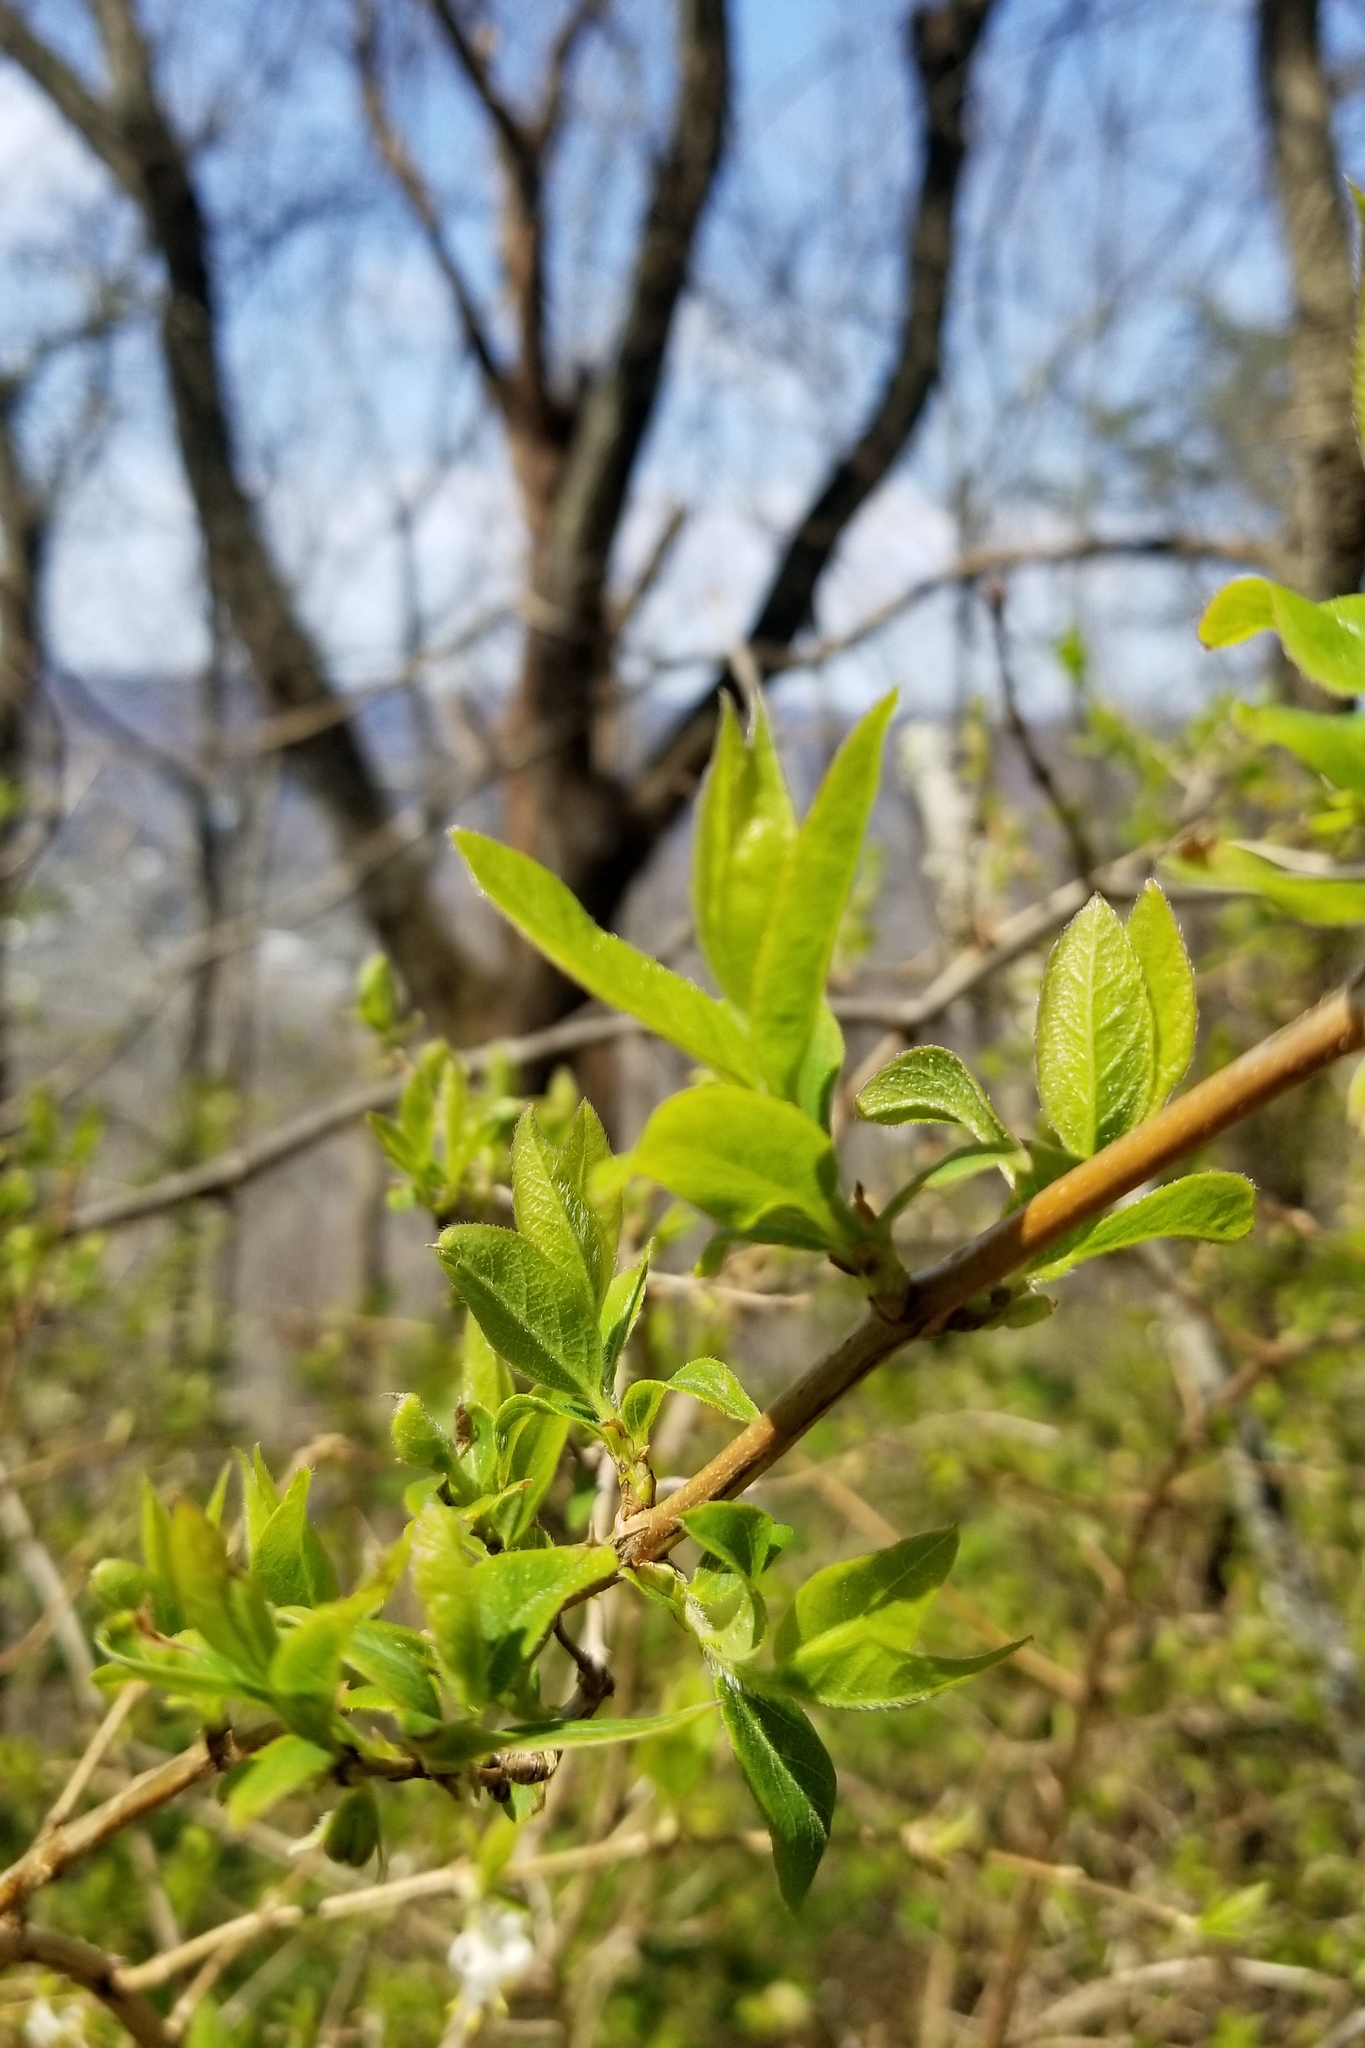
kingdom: Plantae
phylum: Tracheophyta
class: Magnoliopsida
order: Dipsacales
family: Caprifoliaceae
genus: Lonicera
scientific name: Lonicera fragrantissima
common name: Fragrant honeysuckle
